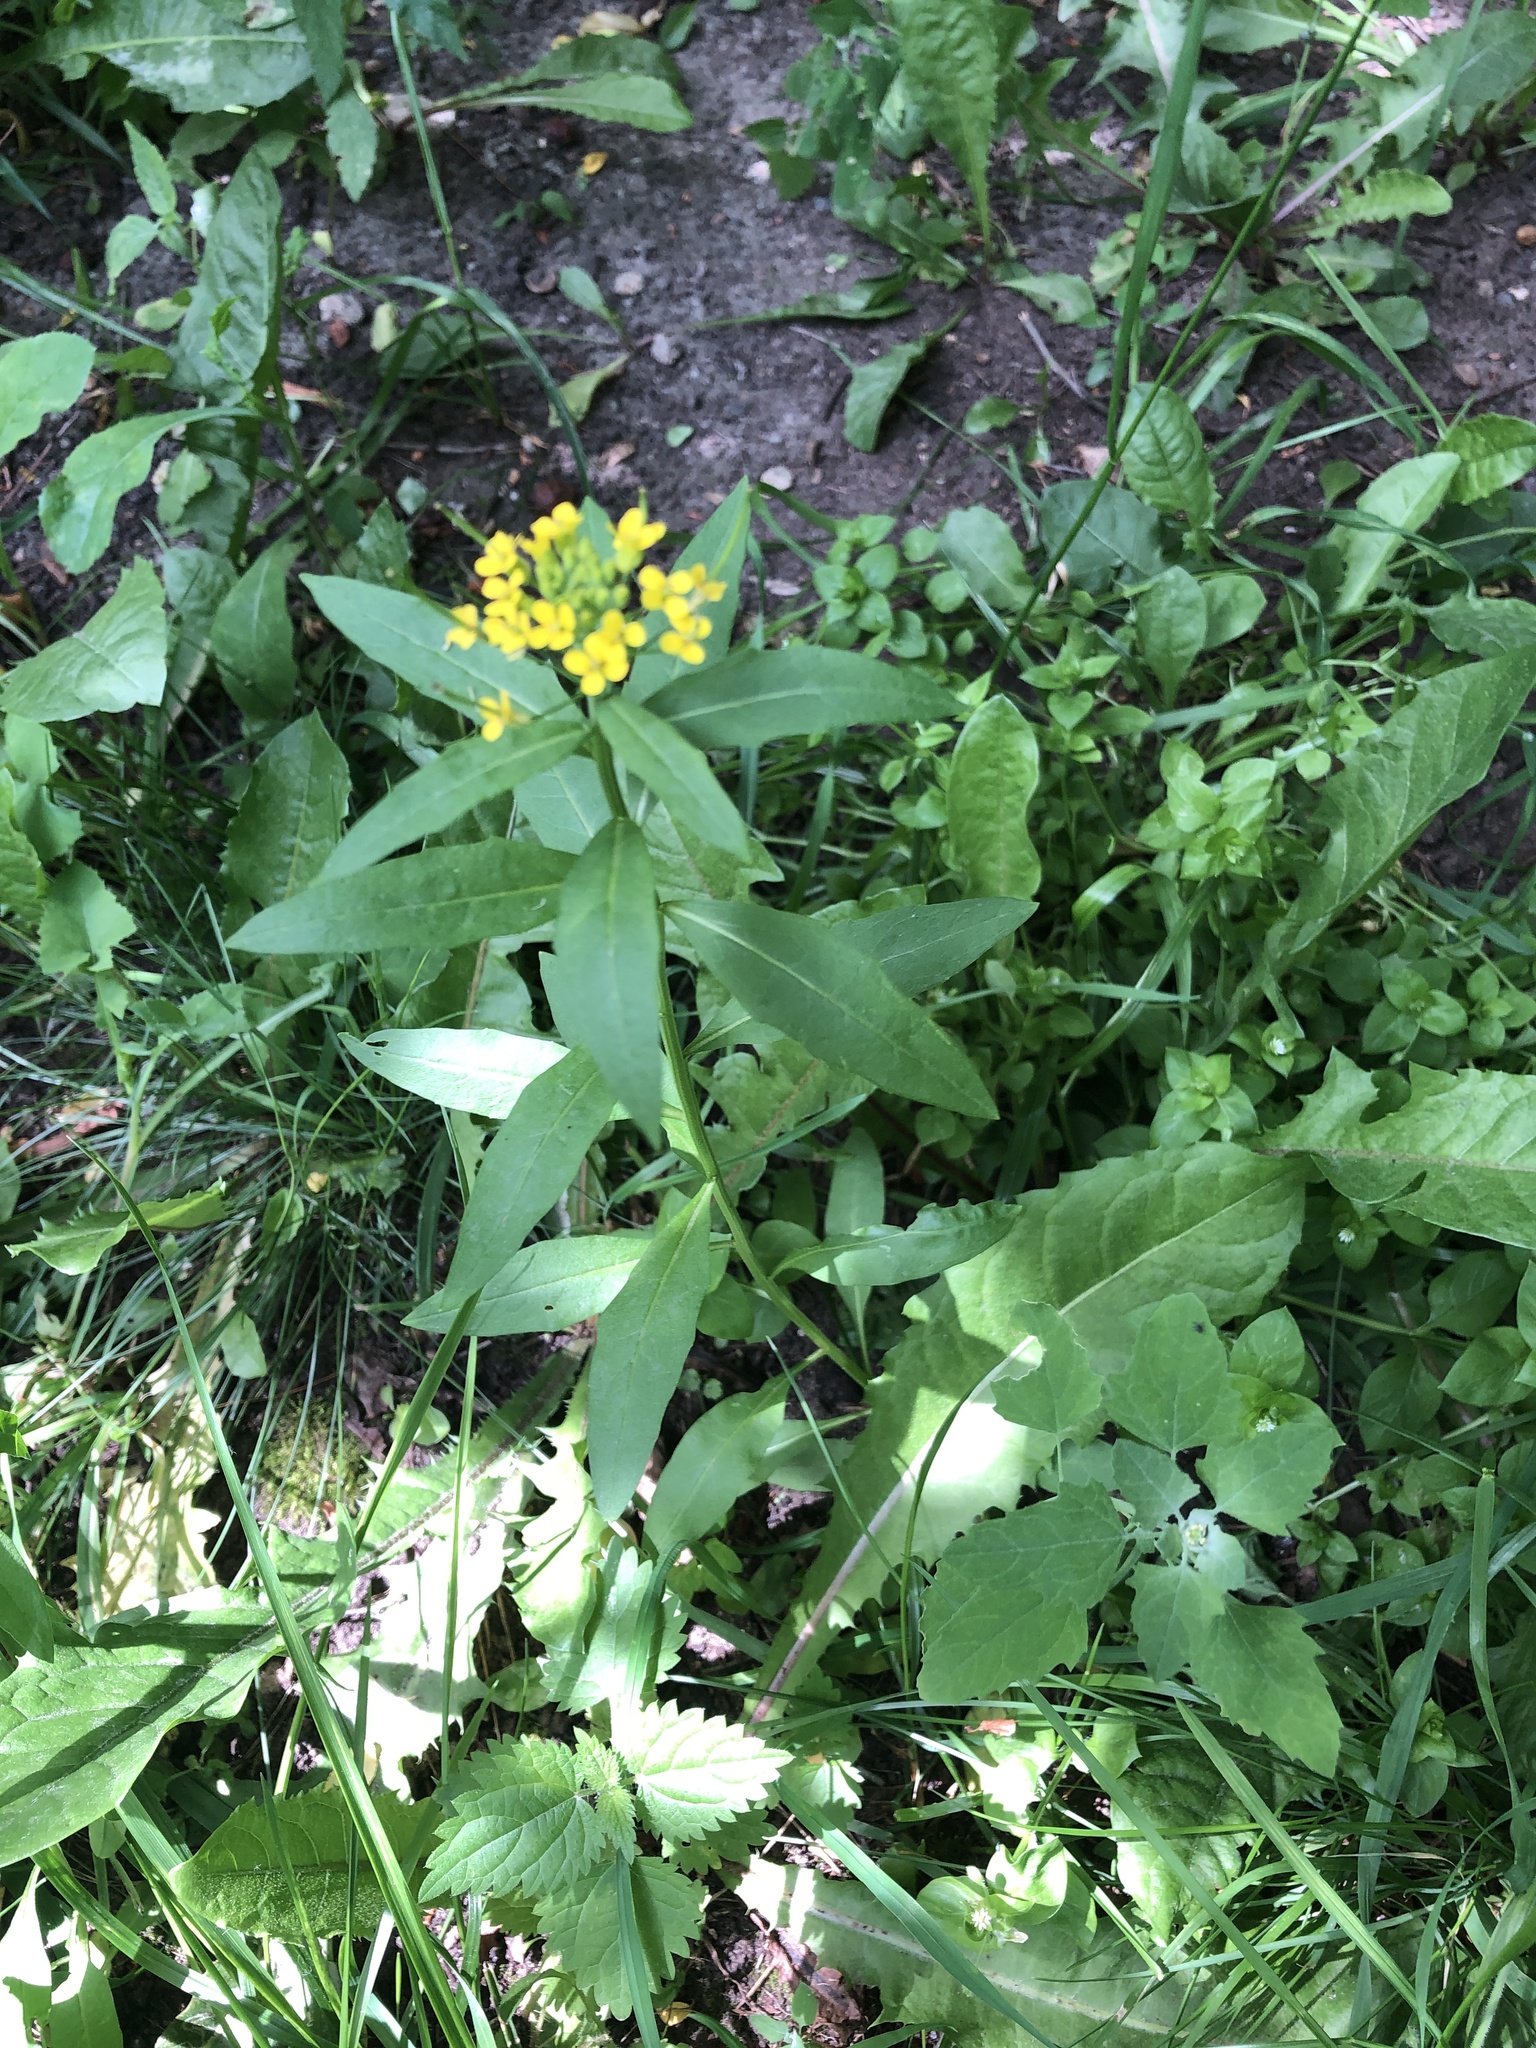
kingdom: Plantae
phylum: Tracheophyta
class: Magnoliopsida
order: Brassicales
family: Brassicaceae
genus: Erysimum
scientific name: Erysimum cheiranthoides
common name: Treacle mustard
